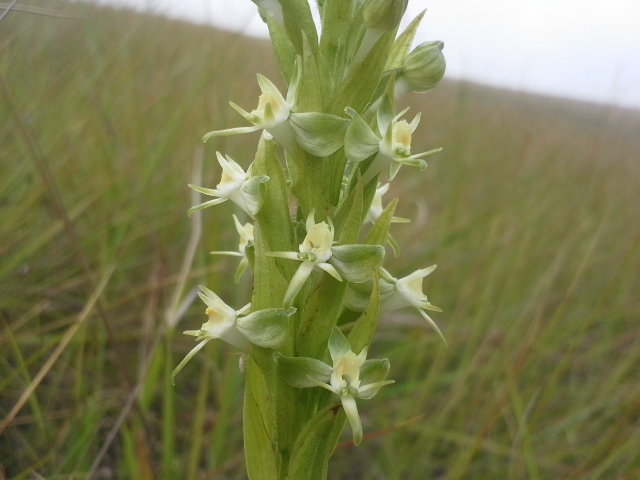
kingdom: Plantae
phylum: Tracheophyta
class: Liliopsida
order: Asparagales
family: Orchidaceae
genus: Habenaria
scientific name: Habenaria dives
